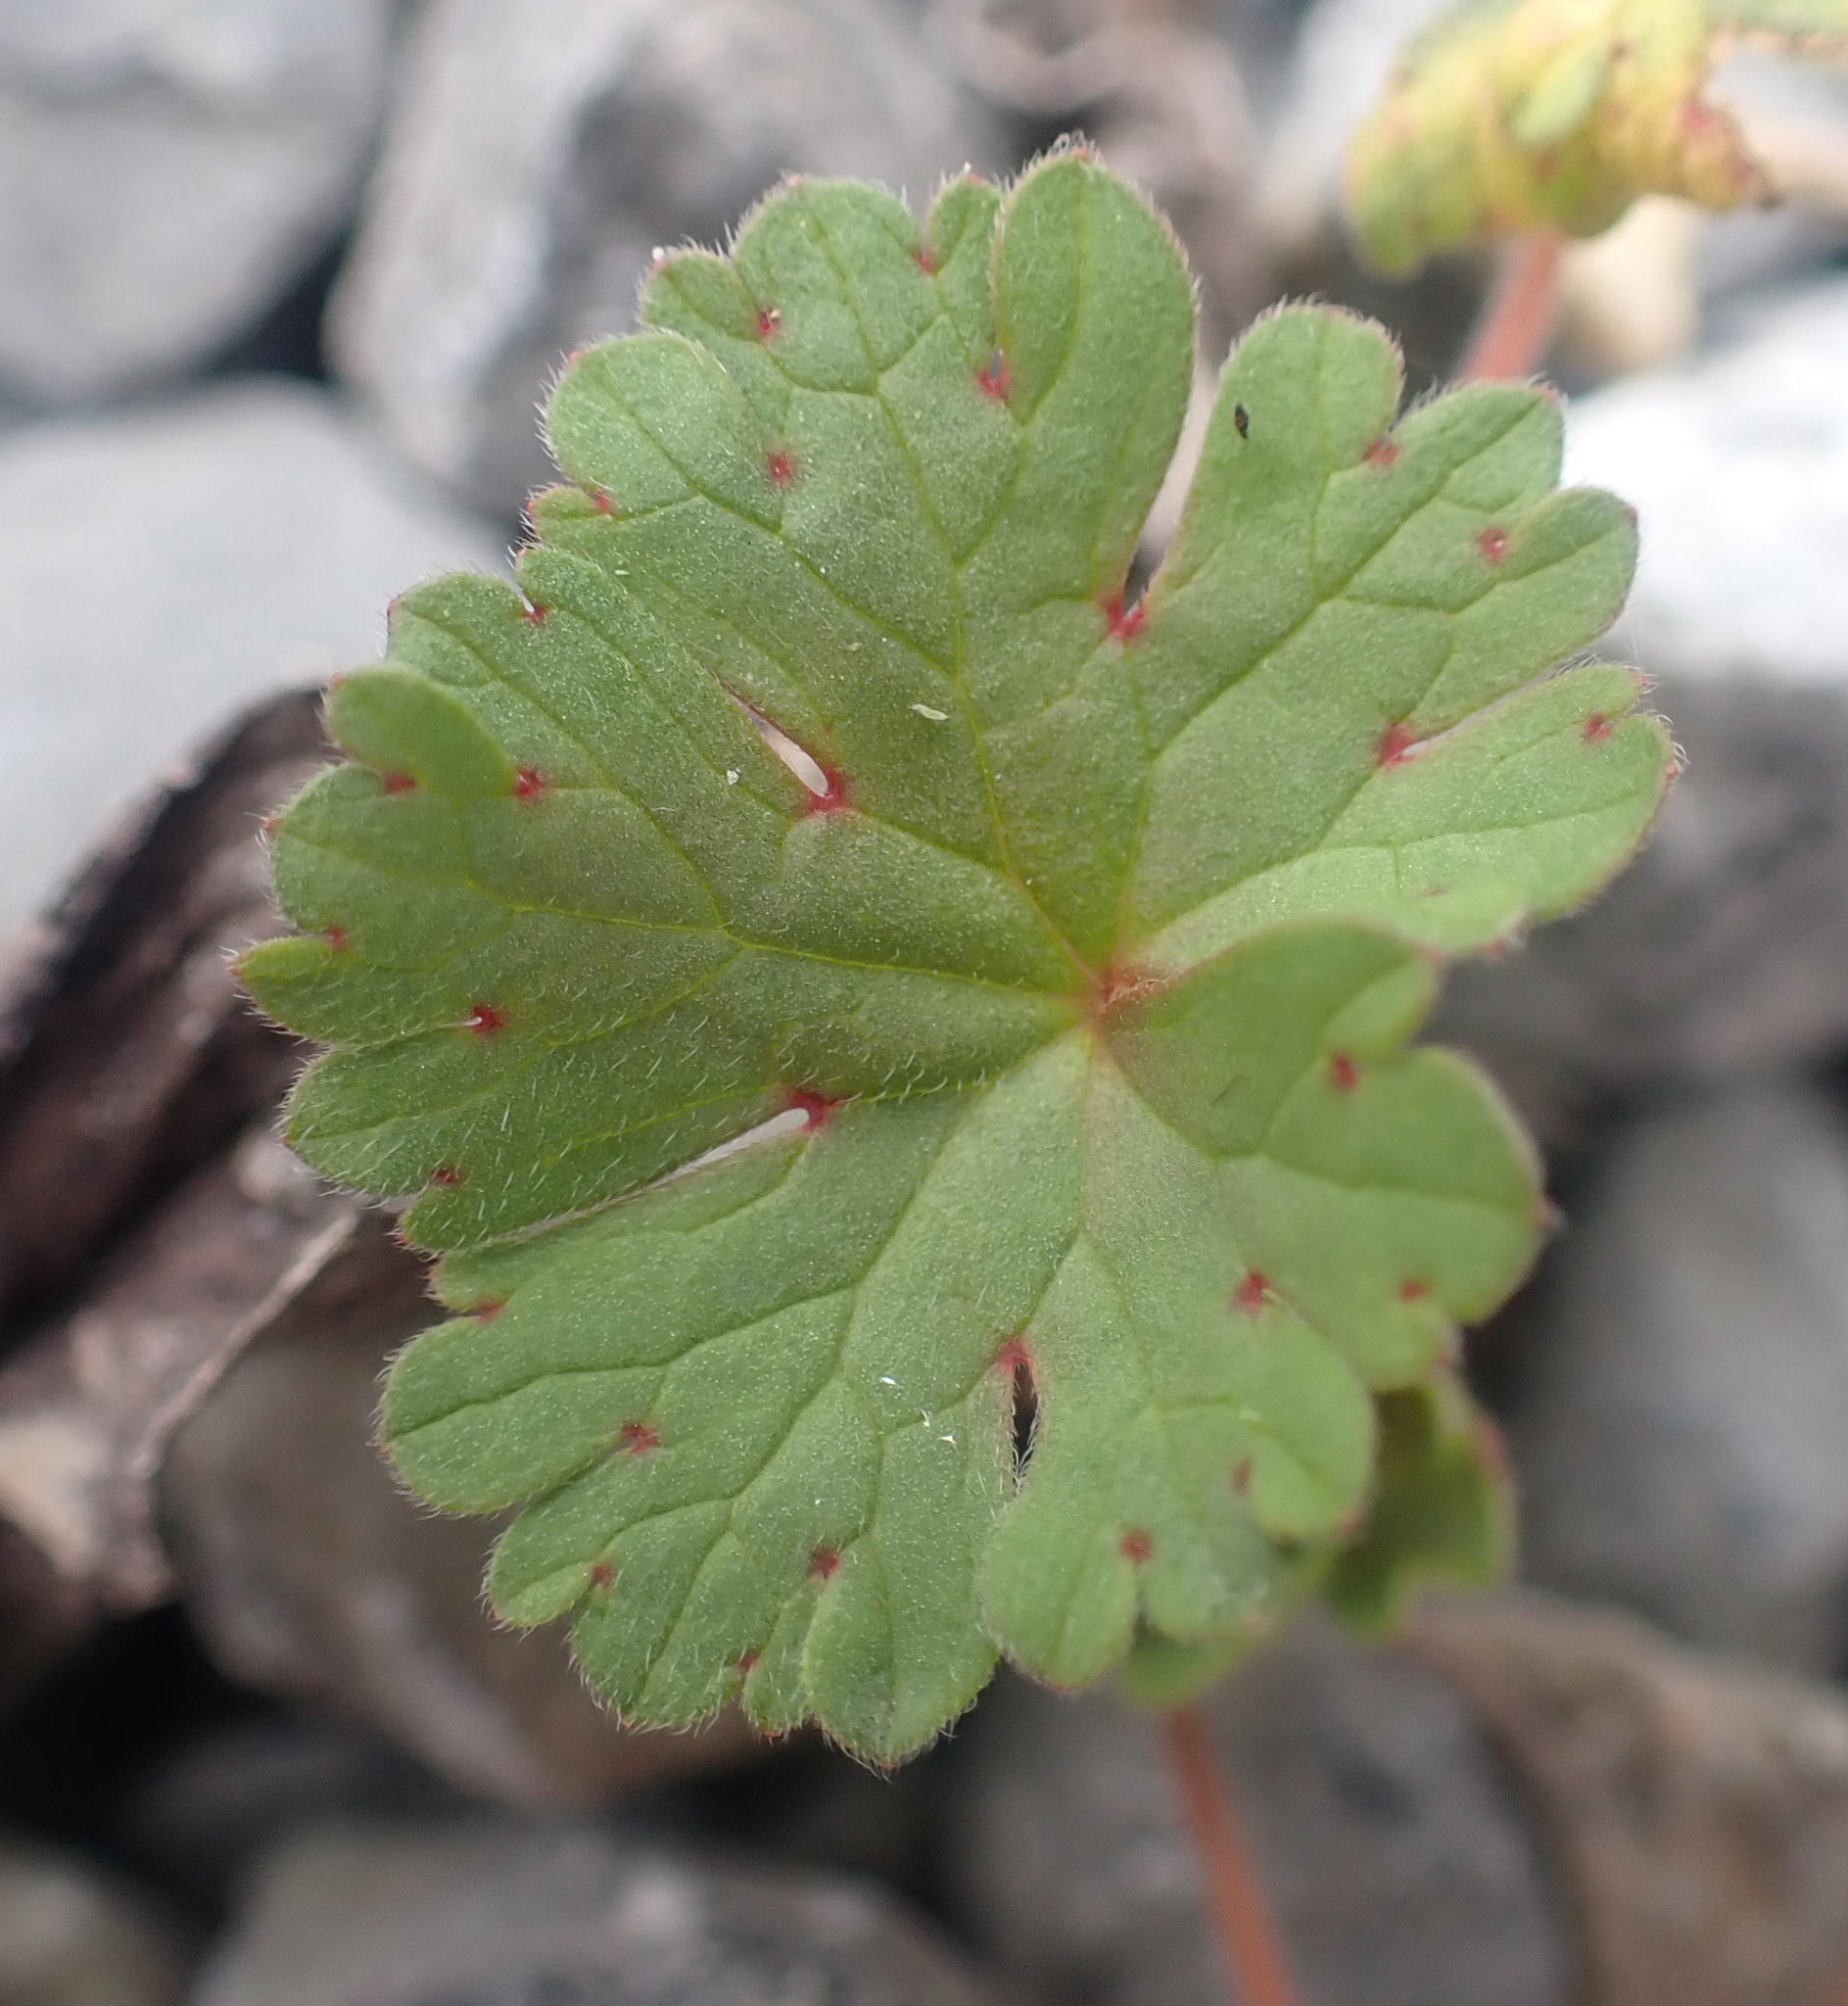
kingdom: Plantae
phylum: Tracheophyta
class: Magnoliopsida
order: Geraniales
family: Geraniaceae
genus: Geranium
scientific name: Geranium rotundifolium
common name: Round-leaved crane's-bill
